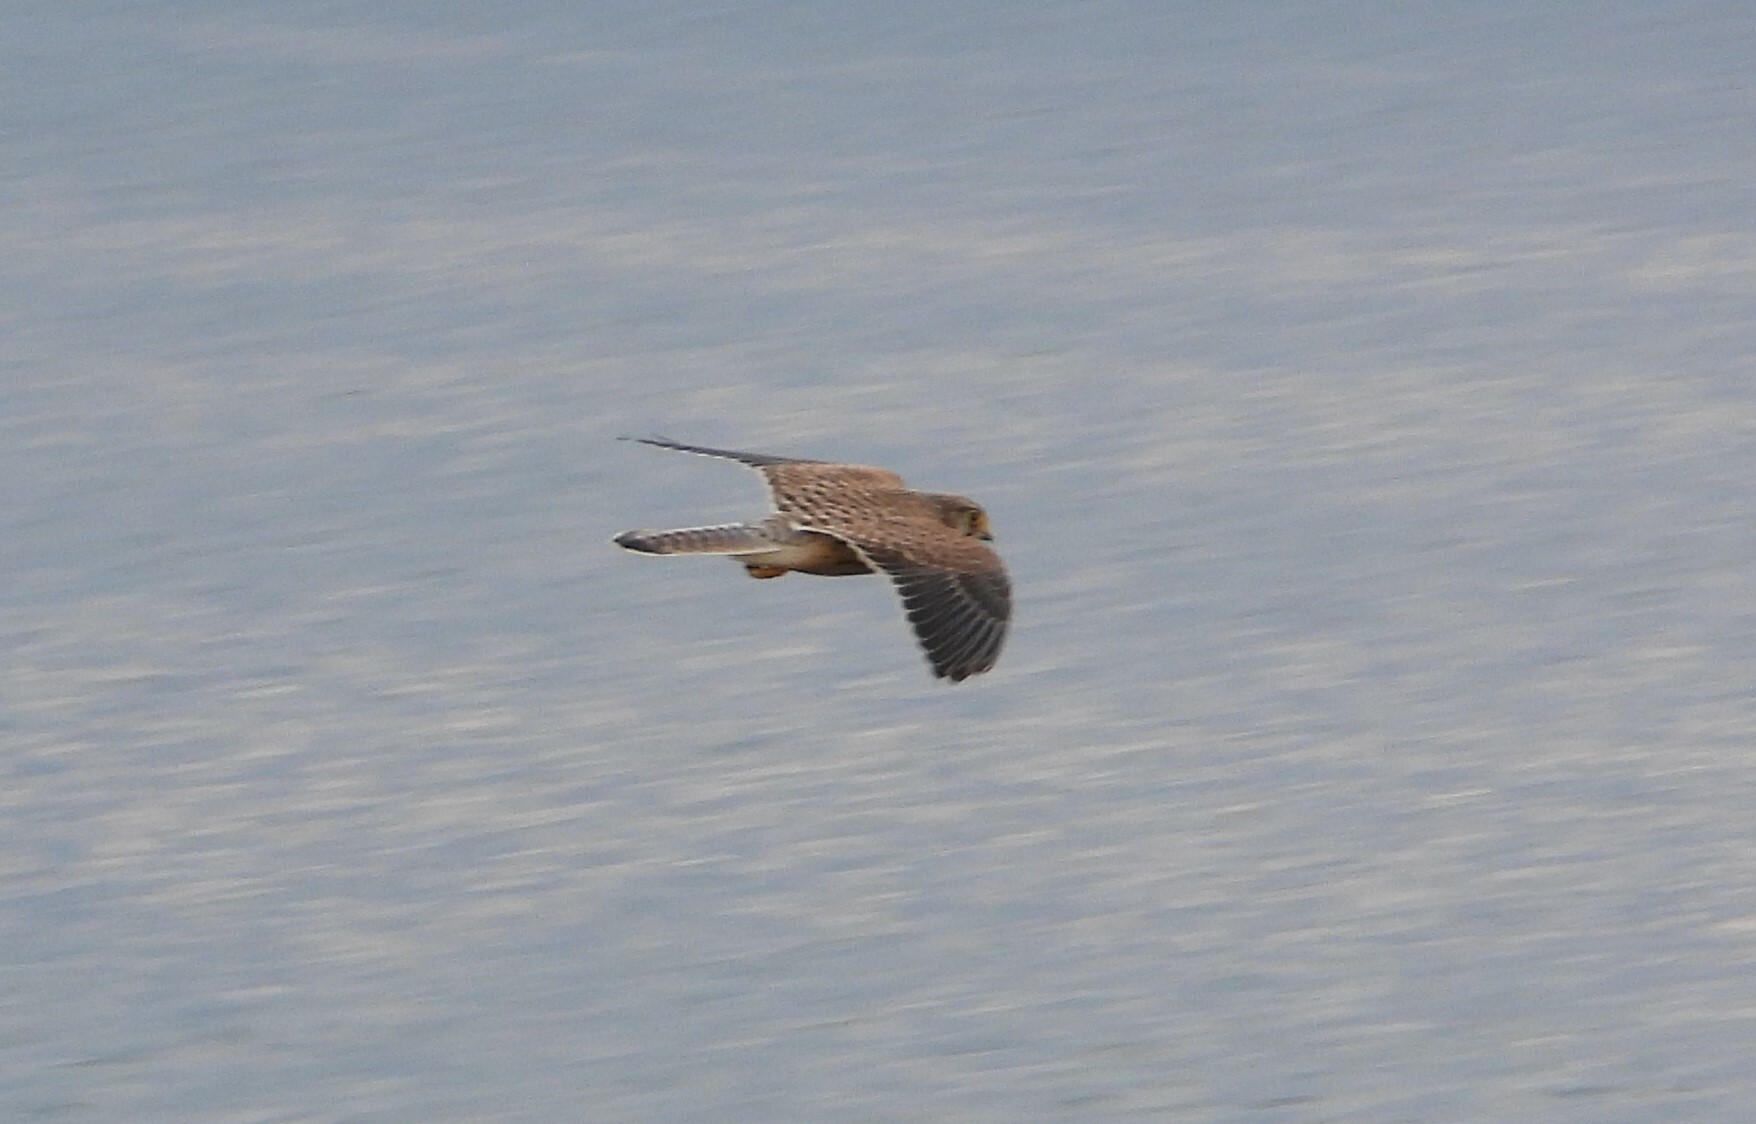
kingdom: Animalia
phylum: Chordata
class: Aves
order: Falconiformes
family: Falconidae
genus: Falco
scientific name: Falco tinnunculus
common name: Common kestrel
